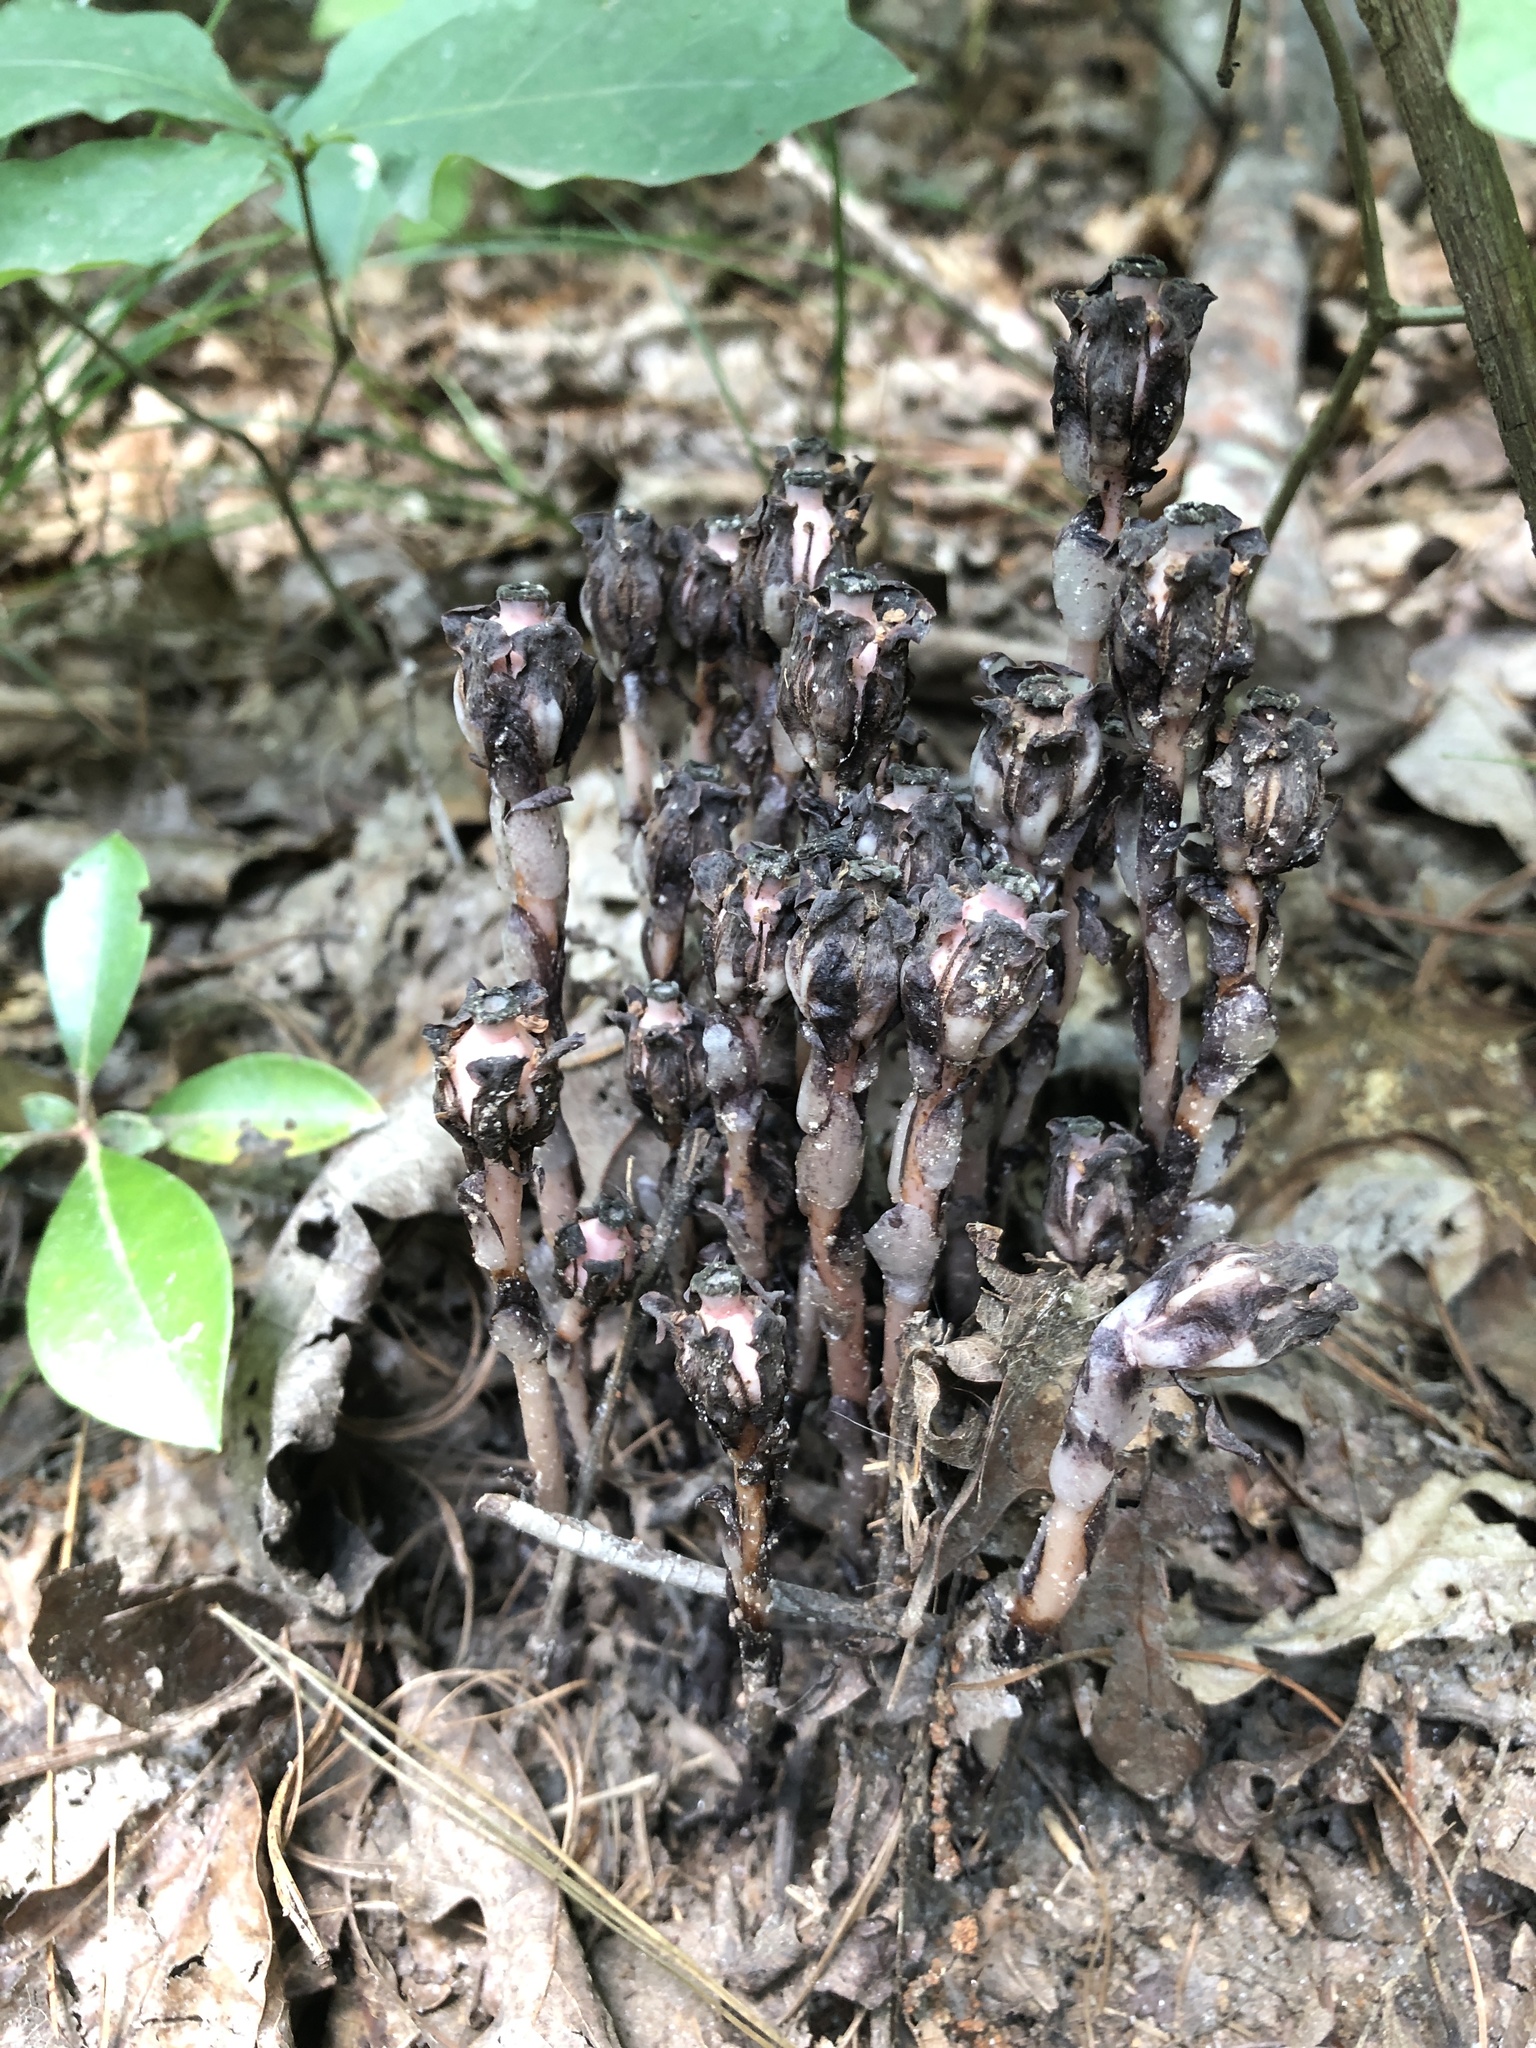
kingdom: Plantae
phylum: Tracheophyta
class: Magnoliopsida
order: Ericales
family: Ericaceae
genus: Monotropa
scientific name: Monotropa uniflora
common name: Convulsion root
